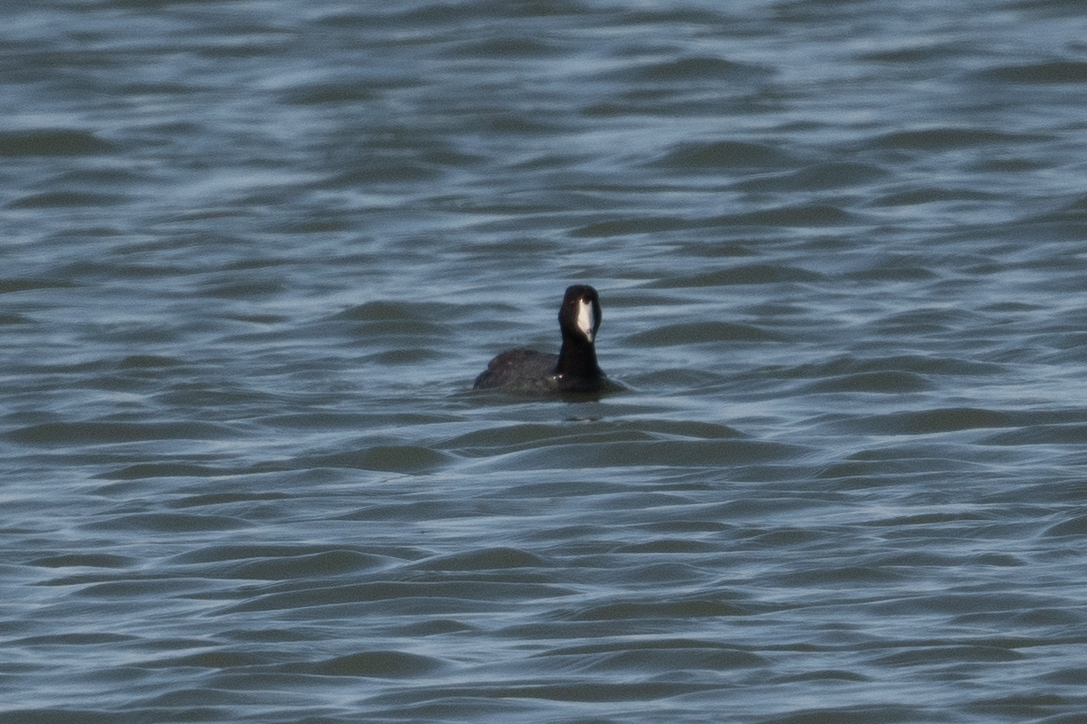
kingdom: Animalia
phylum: Chordata
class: Aves
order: Gruiformes
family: Rallidae
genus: Fulica
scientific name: Fulica americana
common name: American coot
